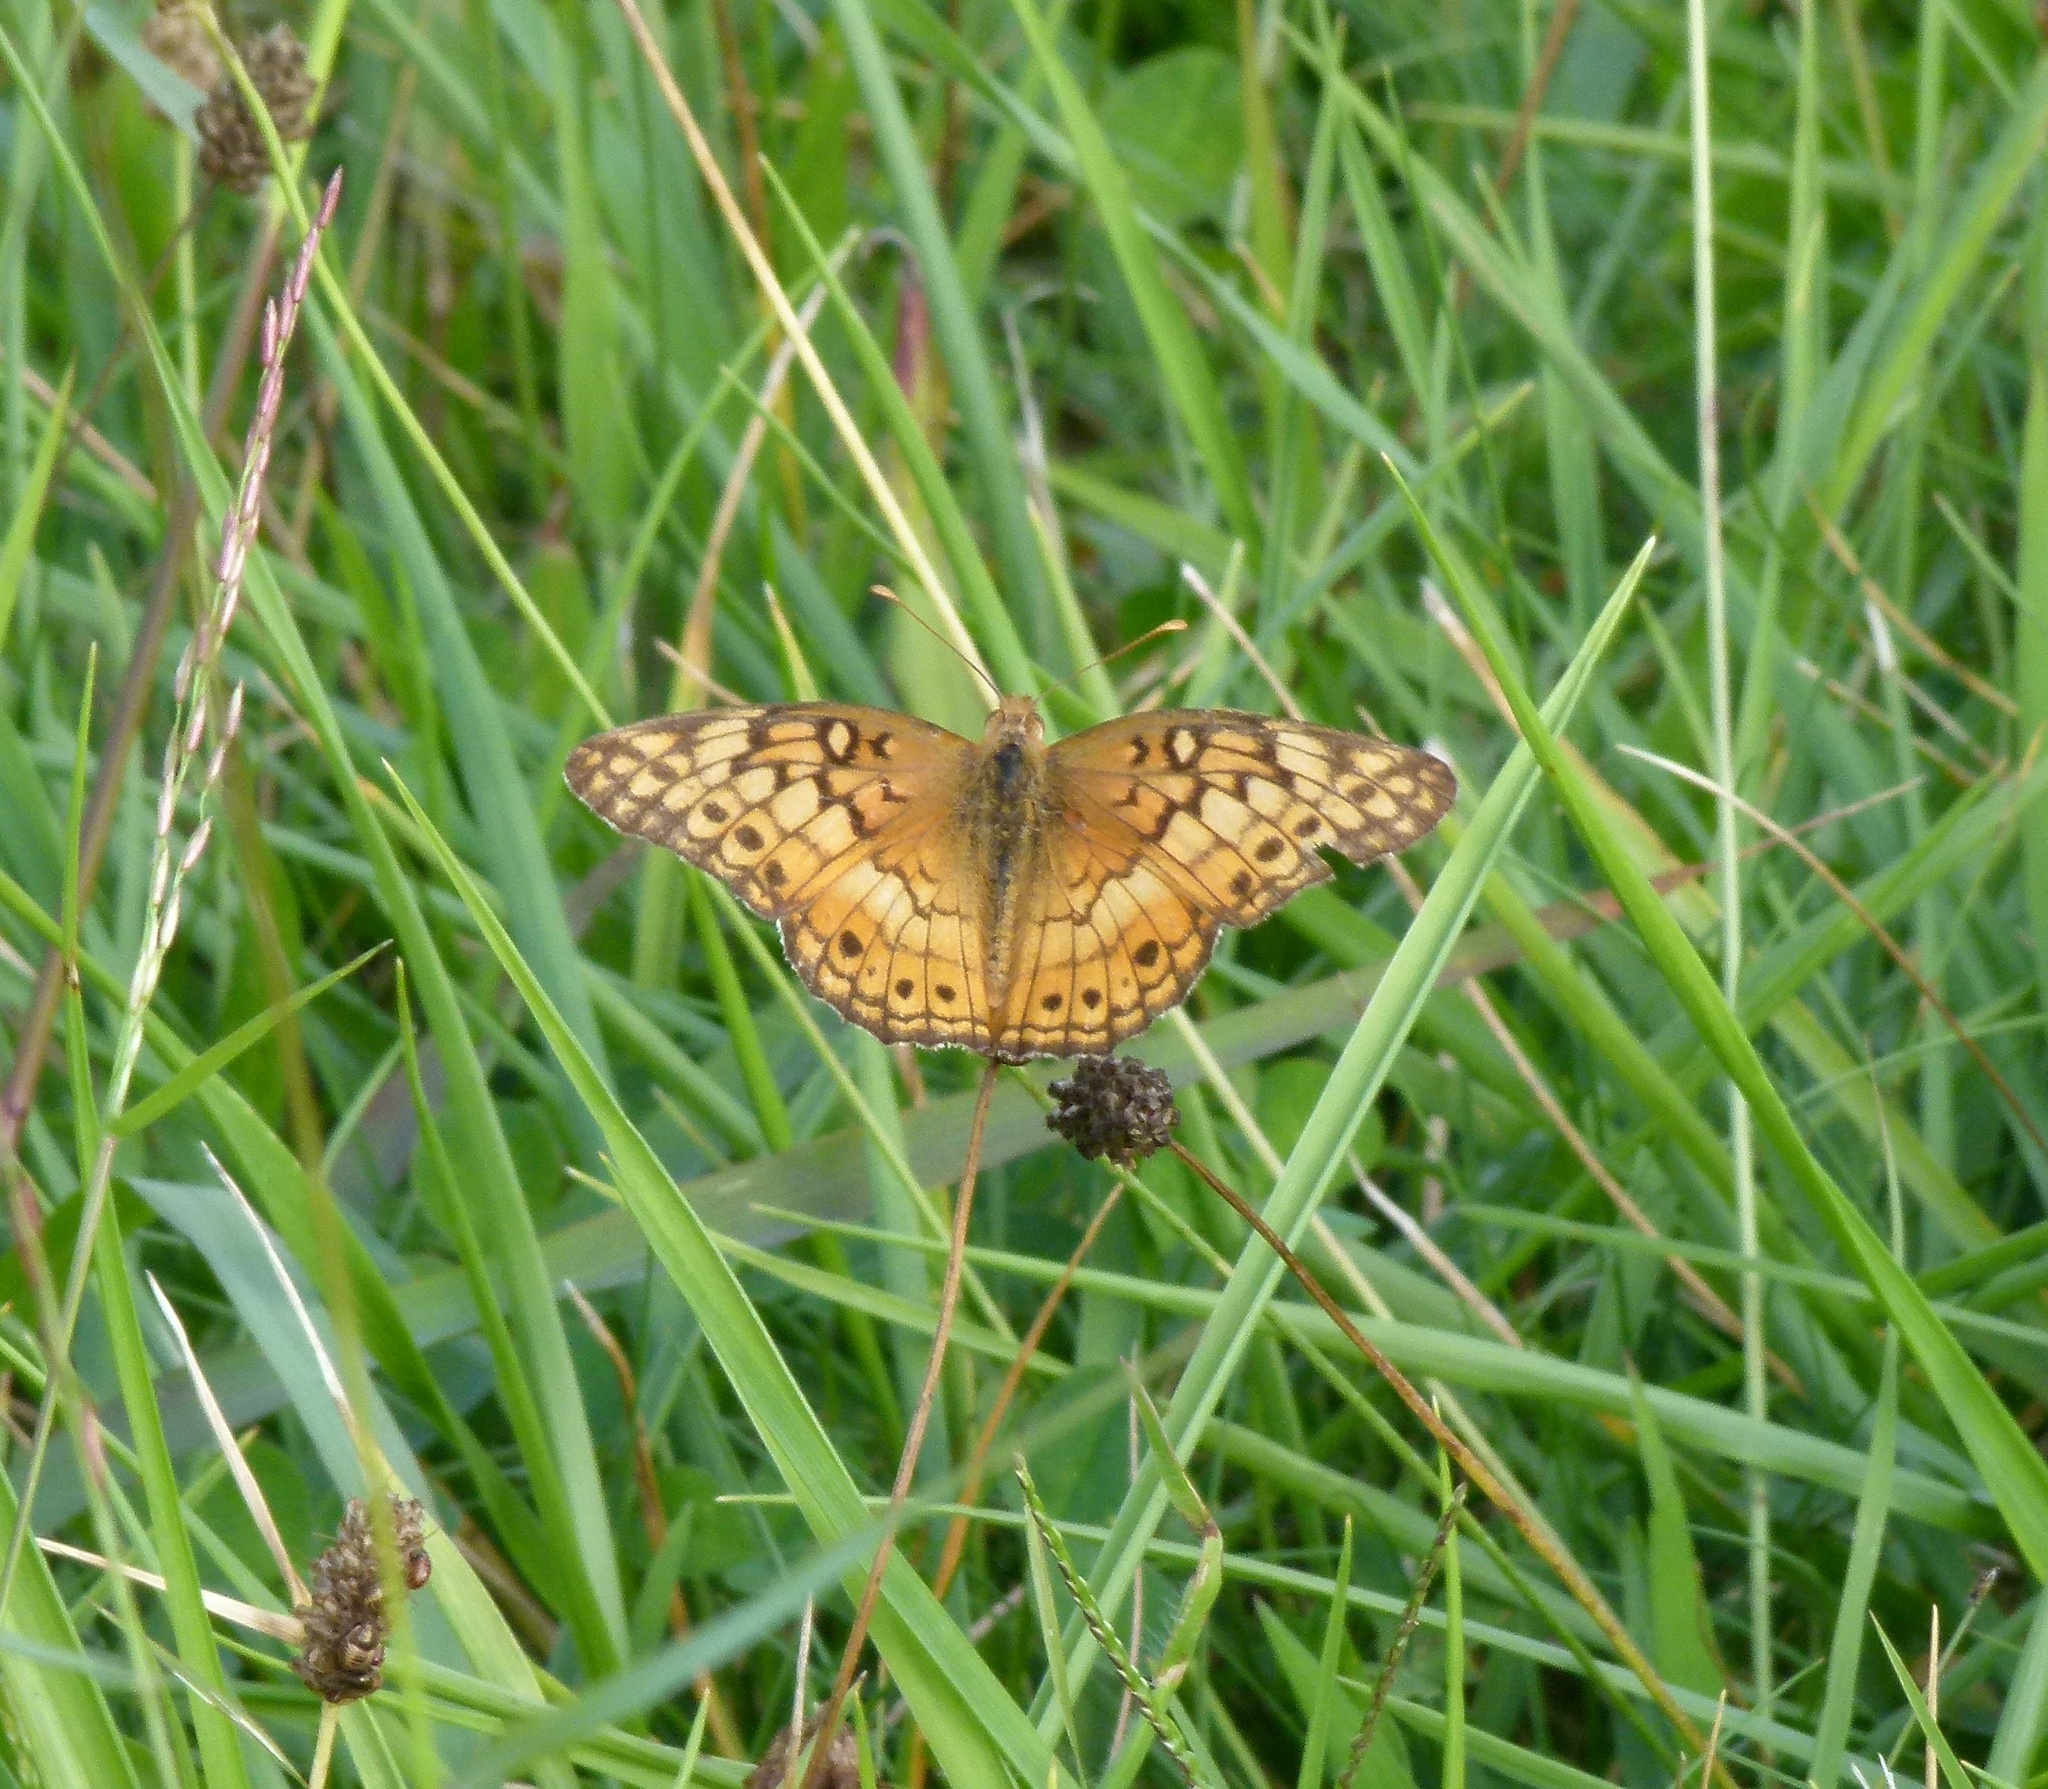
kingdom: Animalia
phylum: Arthropoda
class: Insecta
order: Lepidoptera
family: Nymphalidae
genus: Euptoieta
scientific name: Euptoieta claudia
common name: Variegated fritillary
